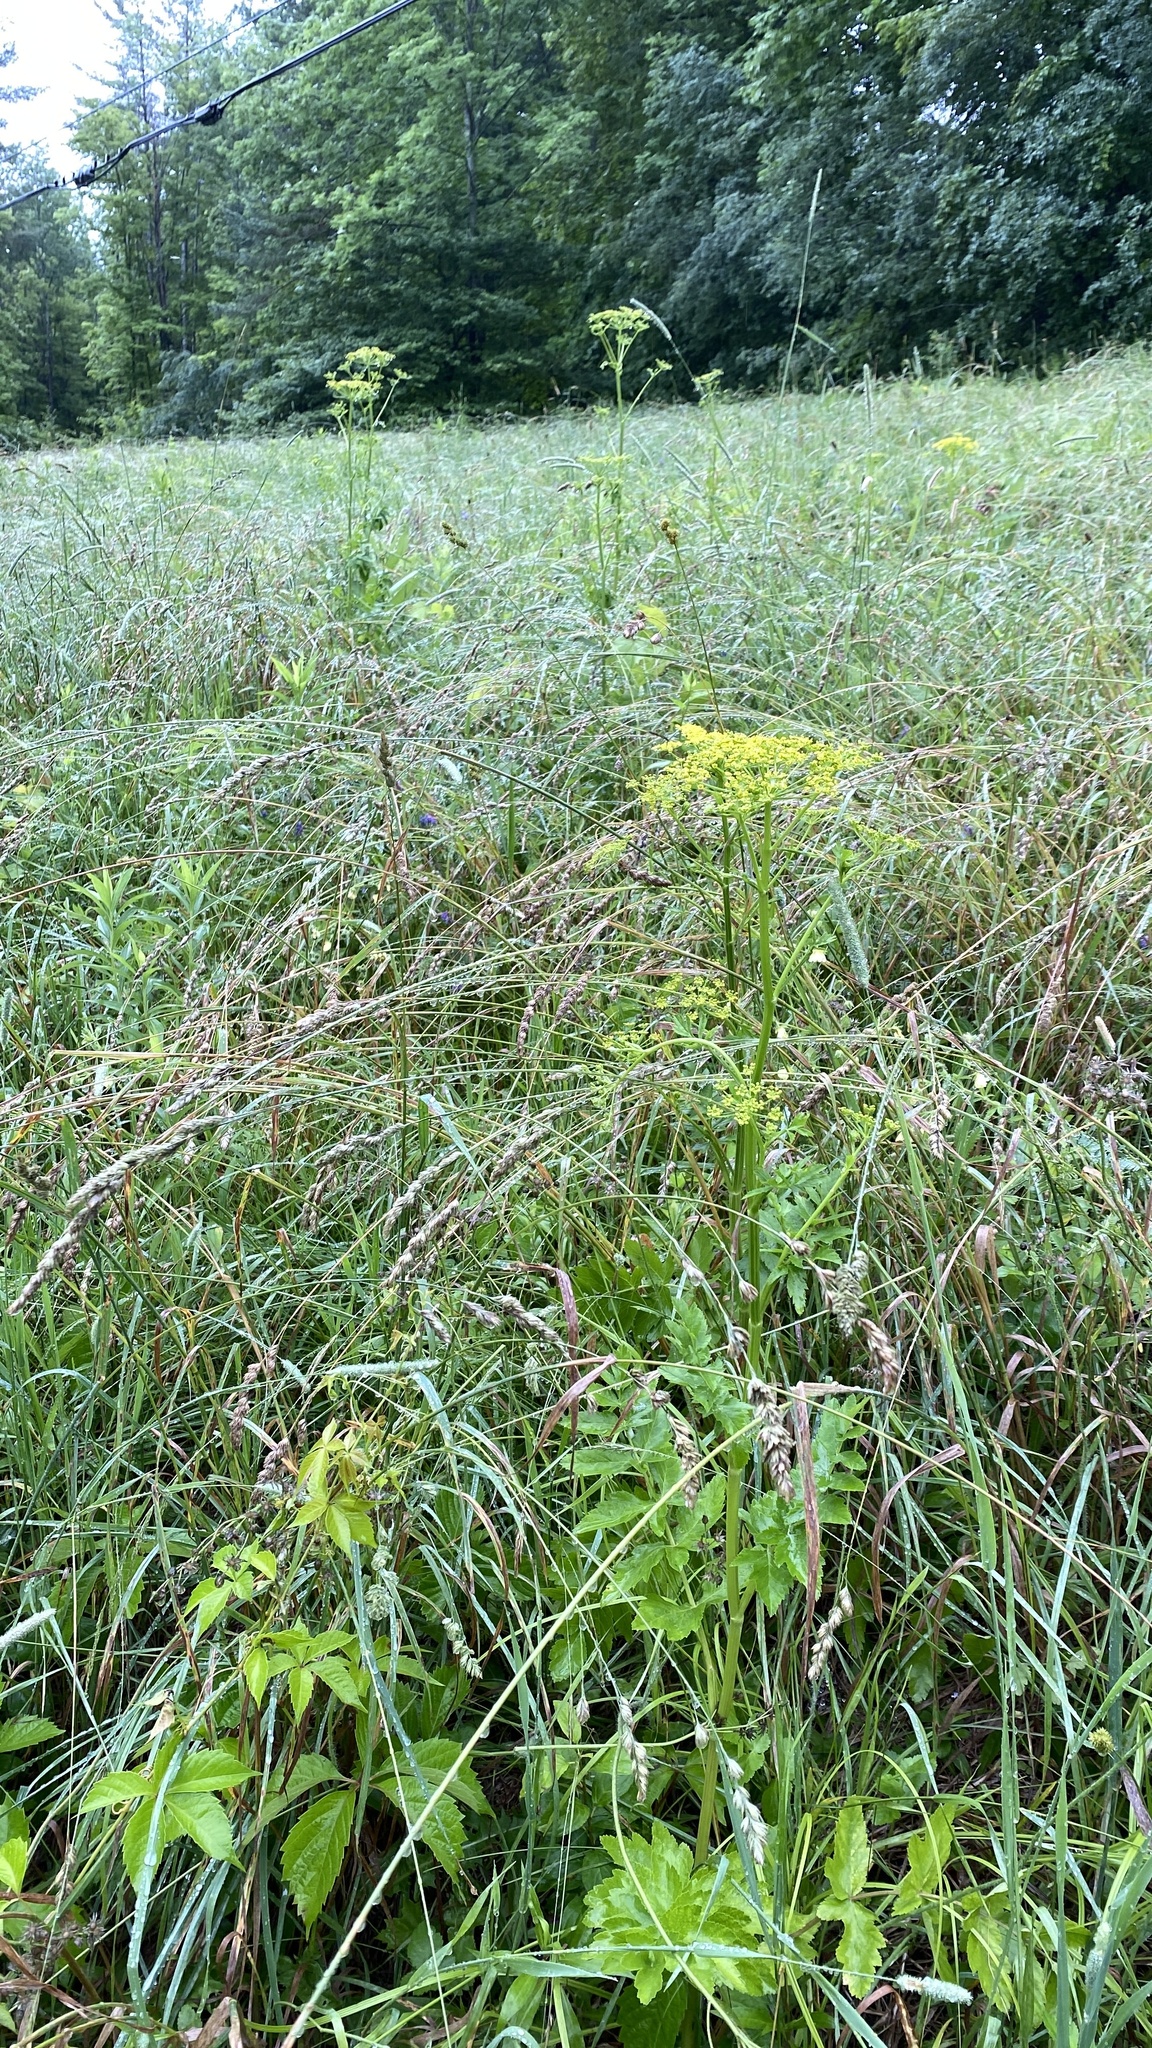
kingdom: Plantae
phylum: Tracheophyta
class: Magnoliopsida
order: Apiales
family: Apiaceae
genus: Pastinaca
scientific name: Pastinaca sativa
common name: Wild parsnip
